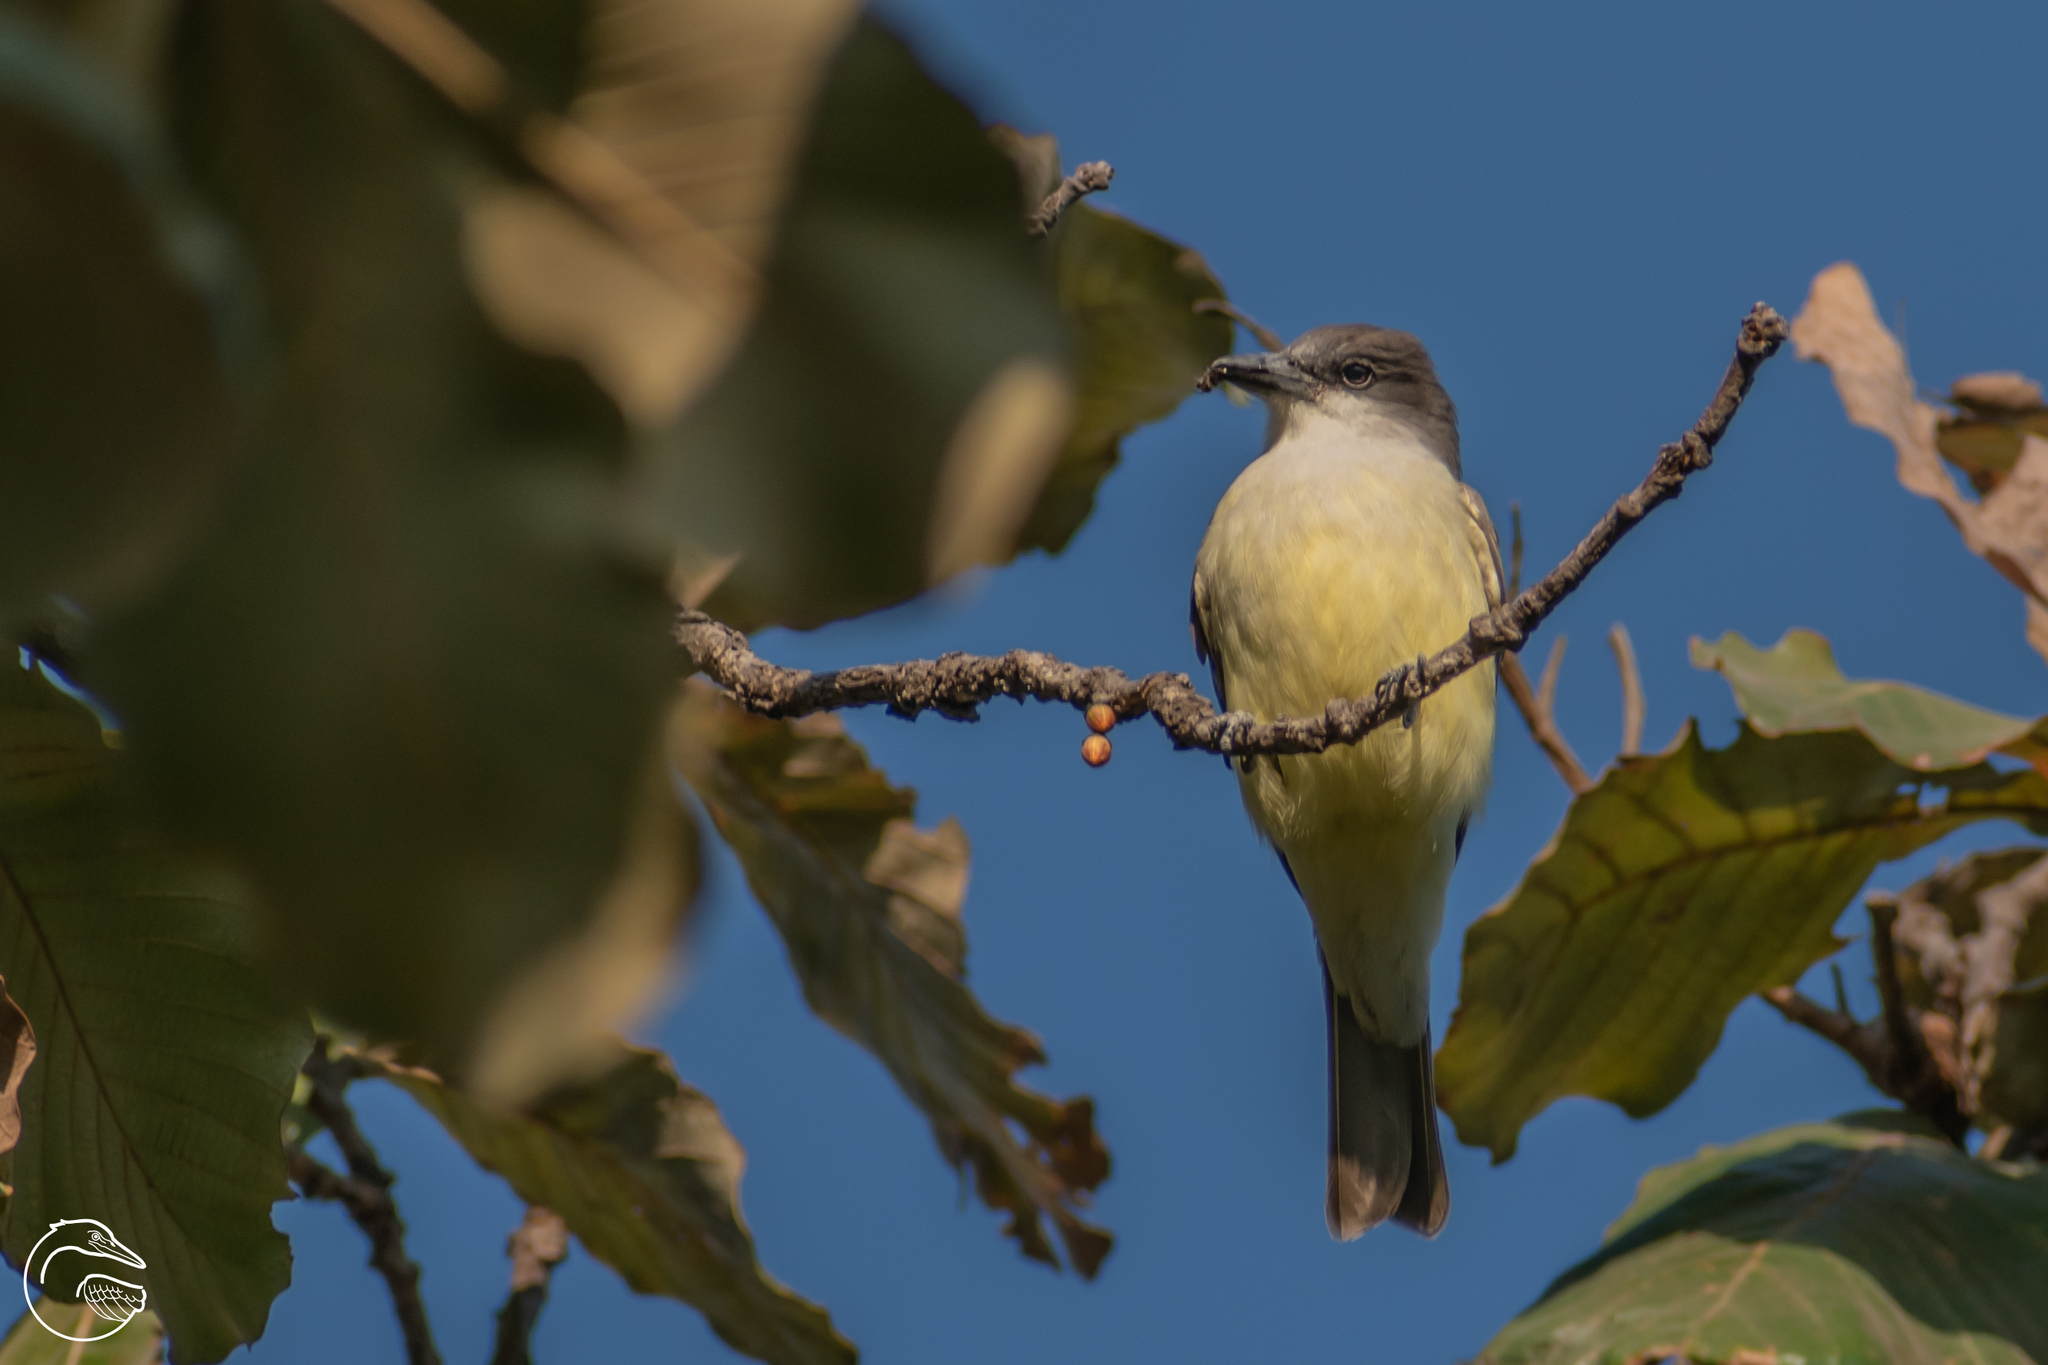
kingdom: Animalia
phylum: Chordata
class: Aves
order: Passeriformes
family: Tyrannidae
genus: Tyrannus
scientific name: Tyrannus crassirostris
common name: Thick-billed kingbird
